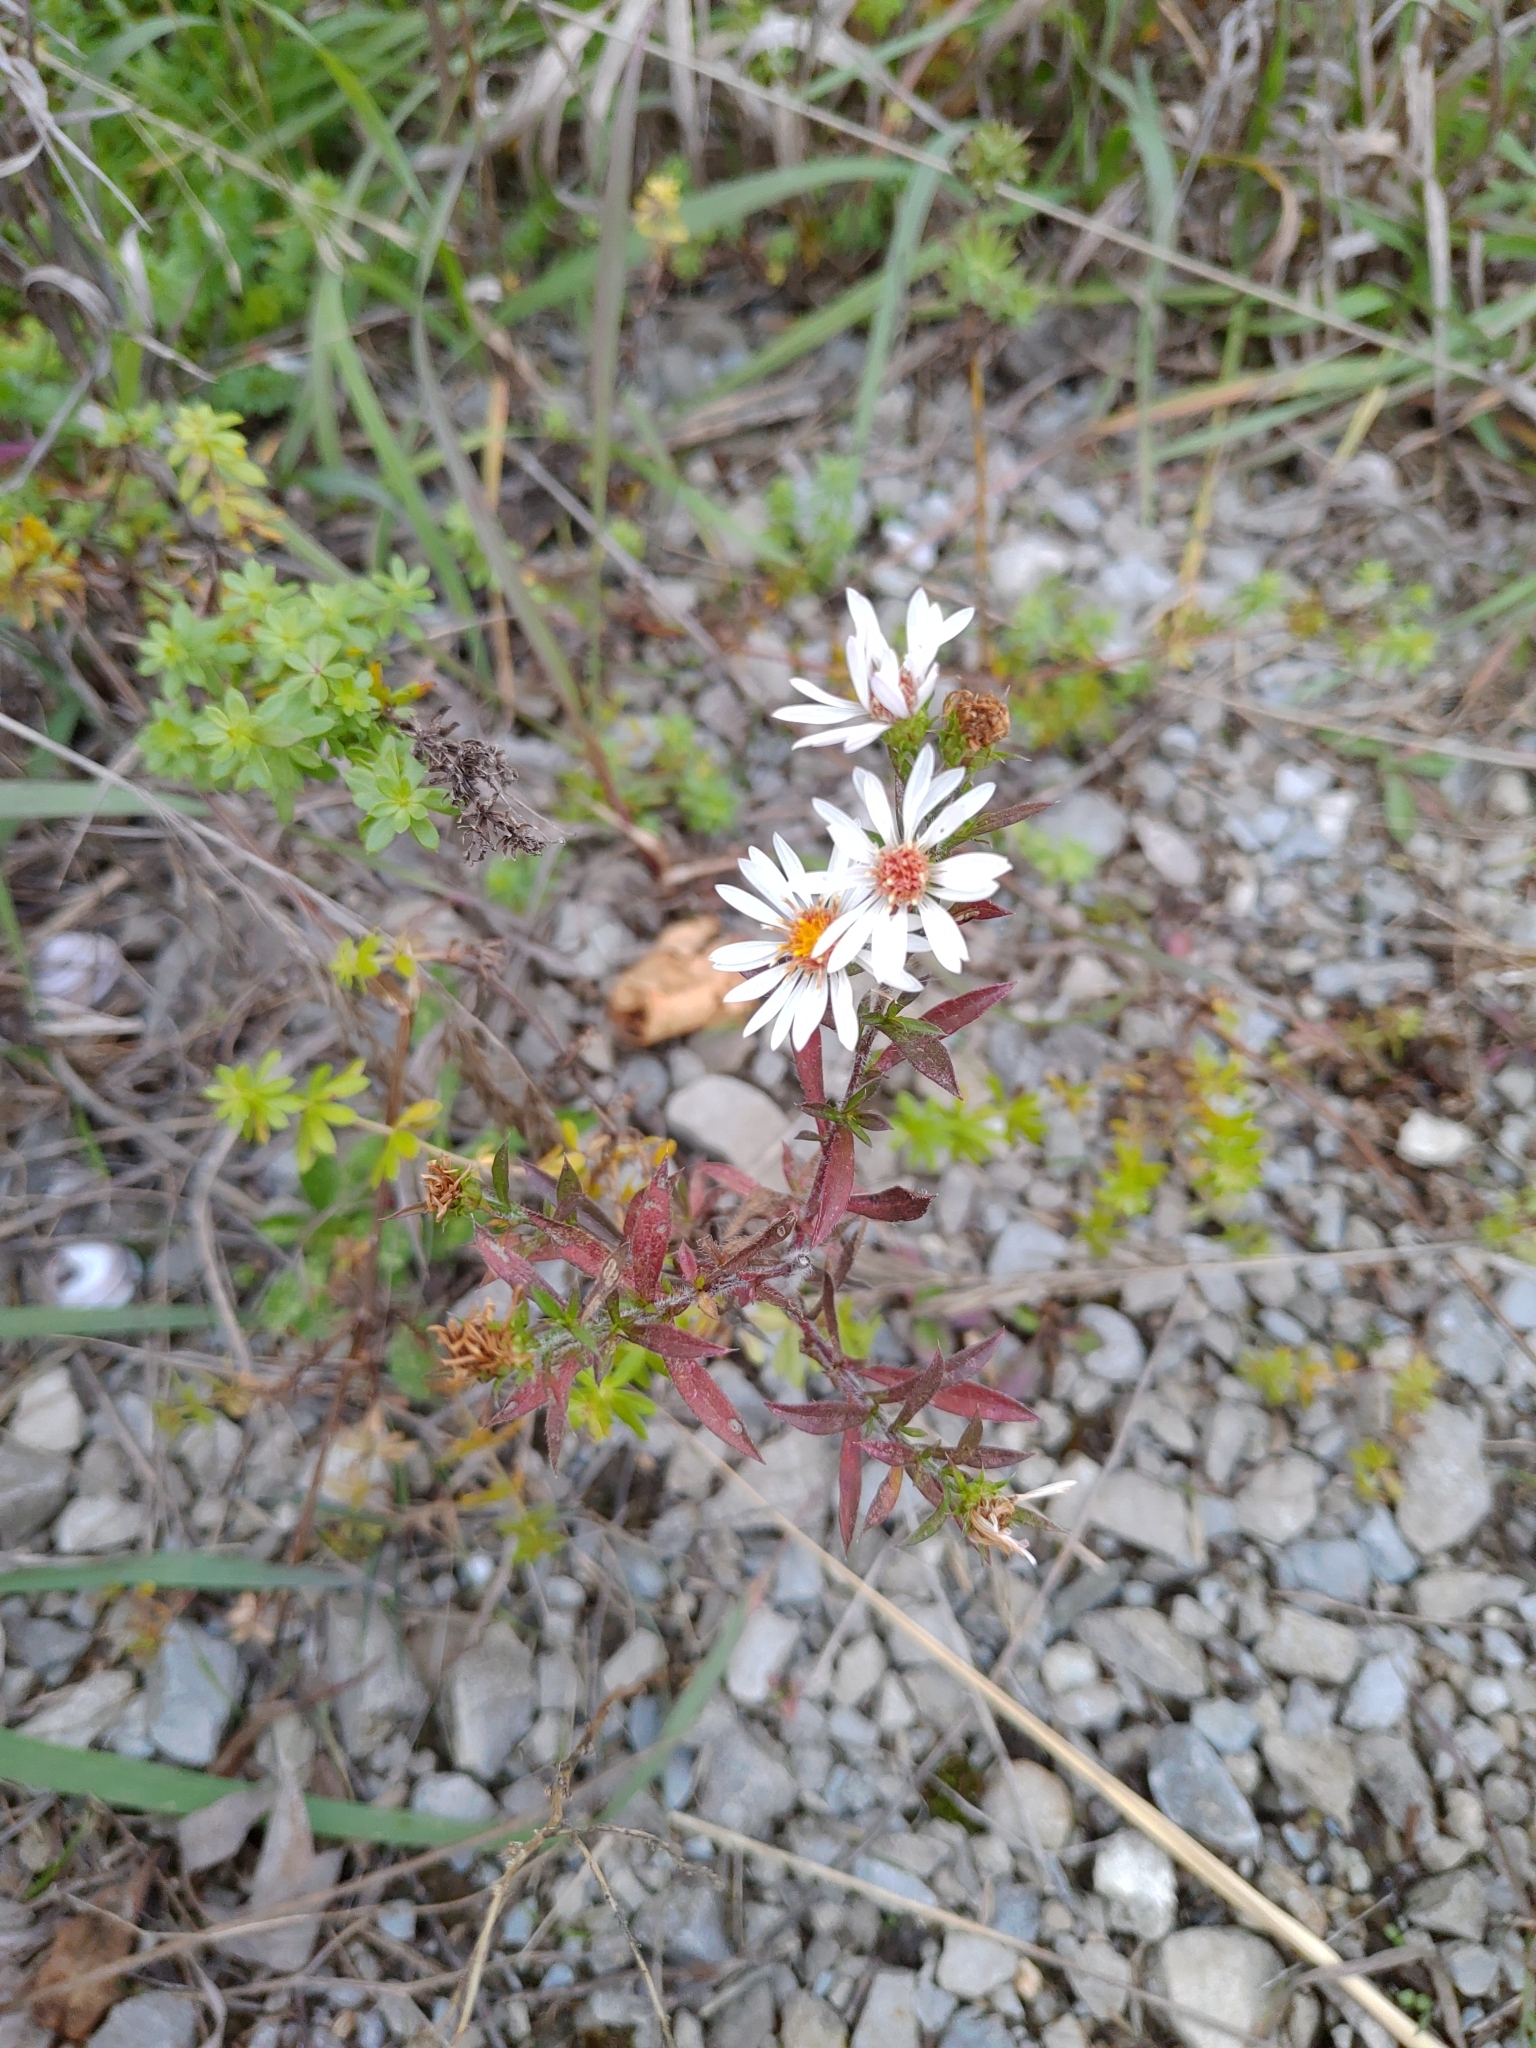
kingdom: Plantae
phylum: Tracheophyta
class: Magnoliopsida
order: Asterales
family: Asteraceae
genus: Symphyotrichum
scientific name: Symphyotrichum pilosum
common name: Awl aster
